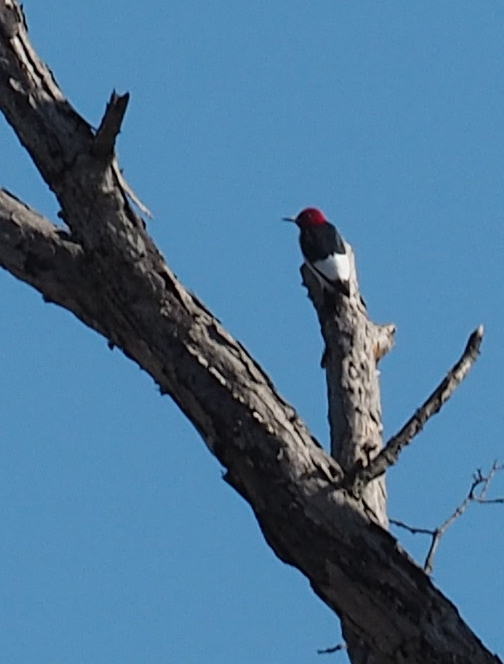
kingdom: Animalia
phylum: Chordata
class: Aves
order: Piciformes
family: Picidae
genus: Melanerpes
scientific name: Melanerpes erythrocephalus
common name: Red-headed woodpecker
